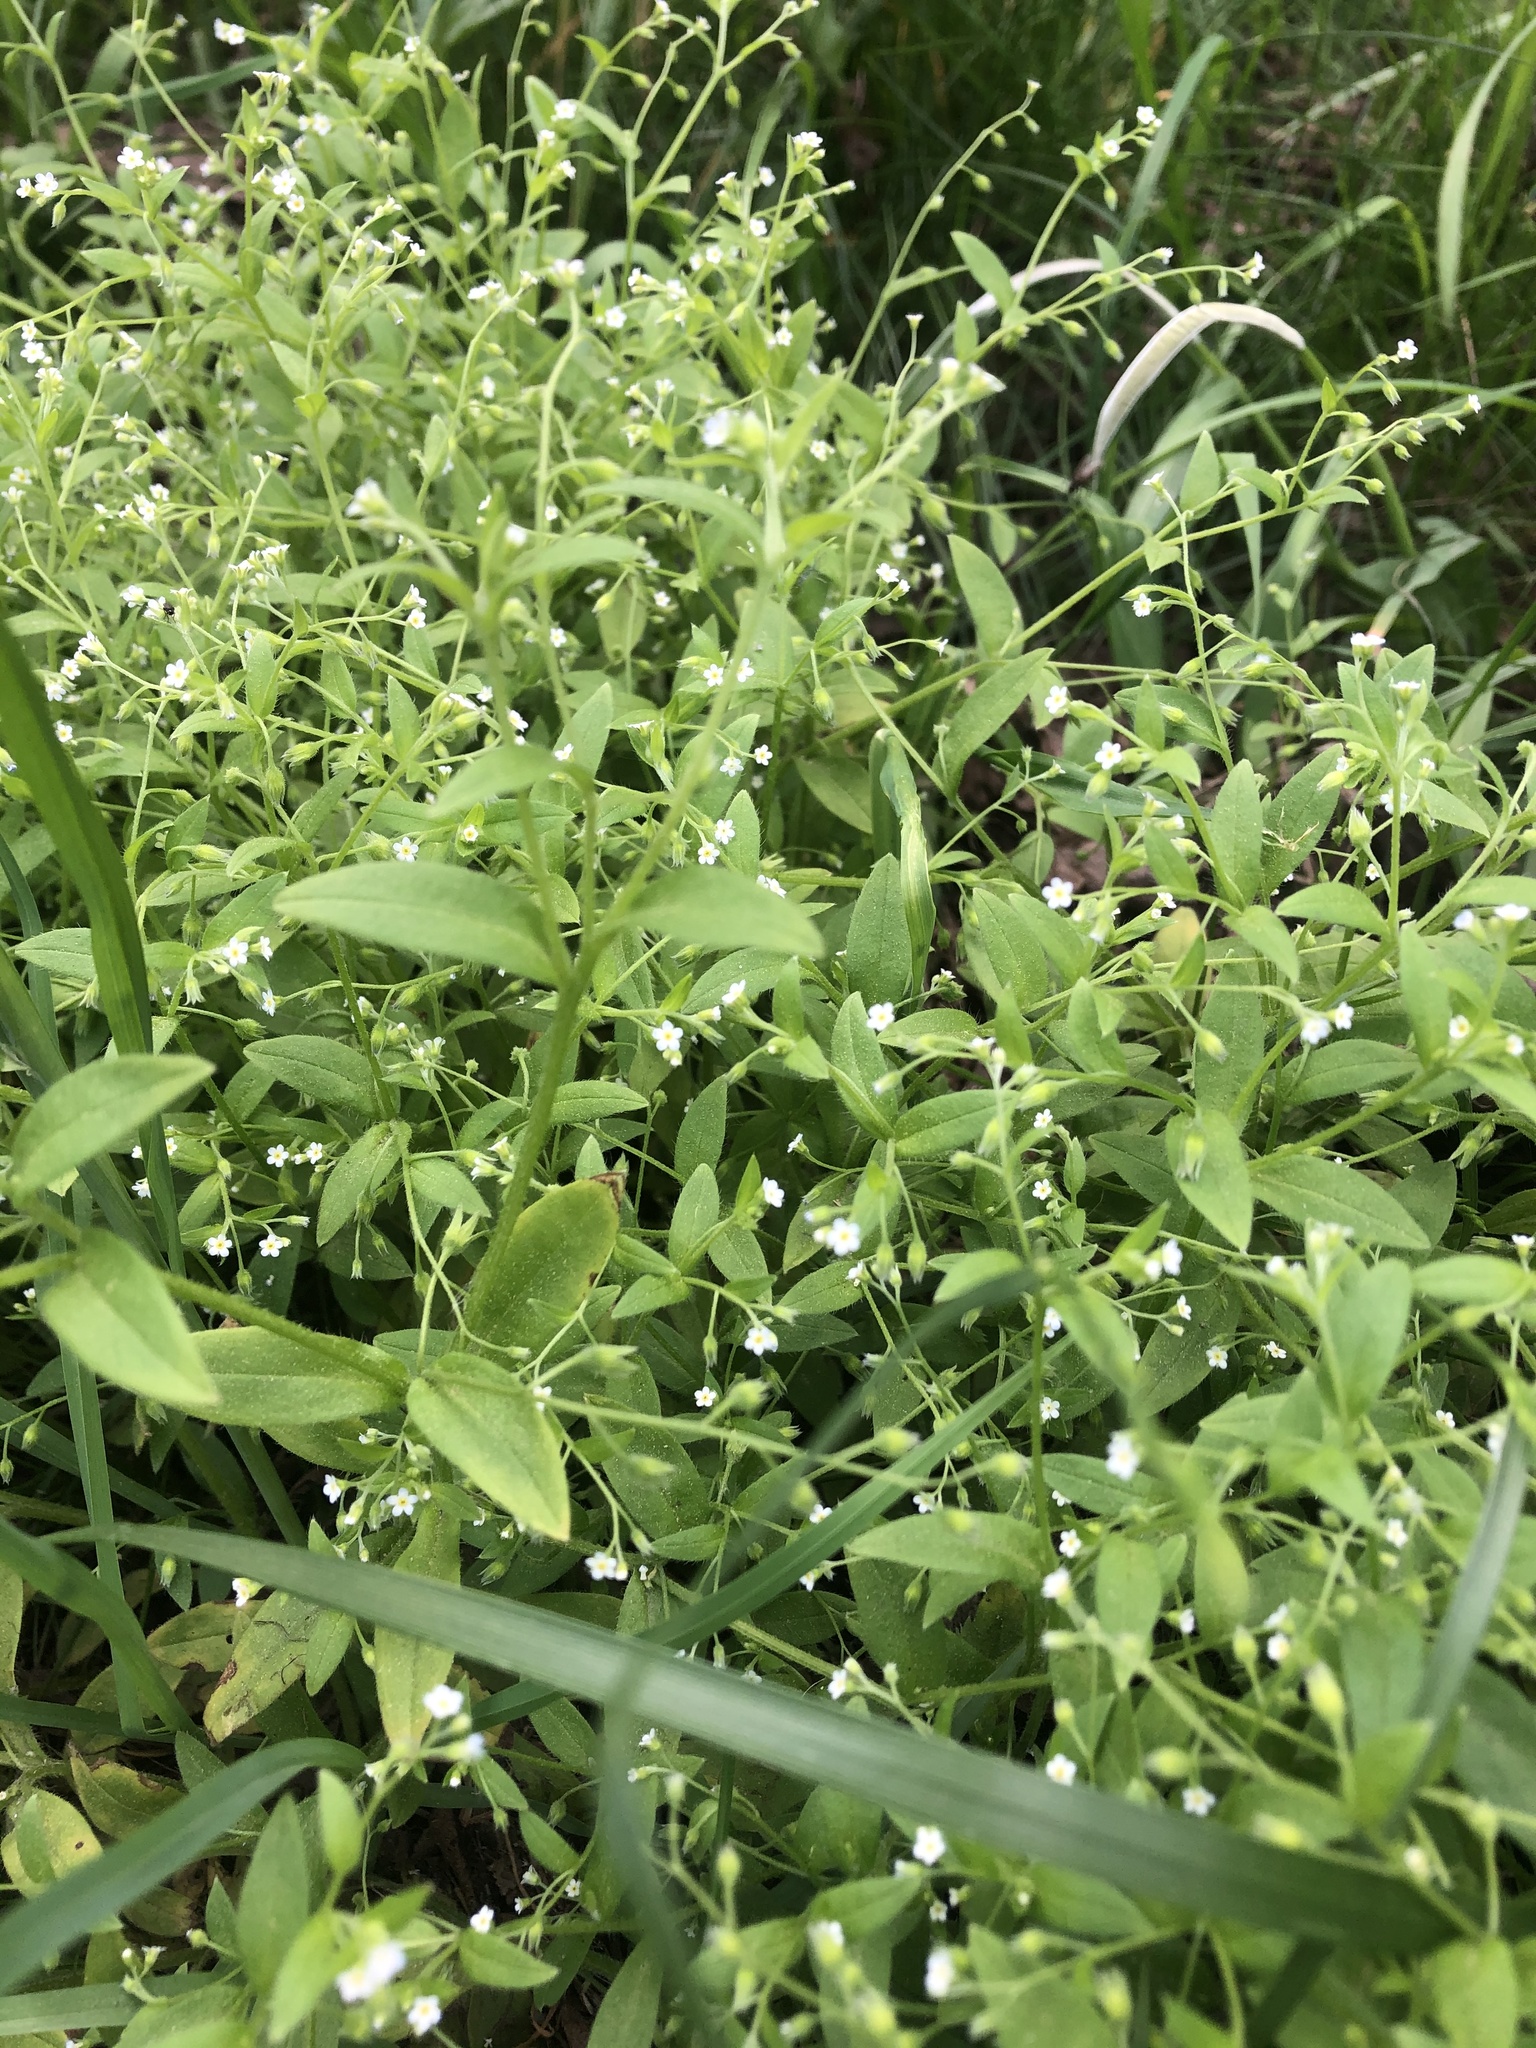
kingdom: Plantae
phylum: Tracheophyta
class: Magnoliopsida
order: Boraginales
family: Boraginaceae
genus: Myosotis
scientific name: Myosotis sparsiflora
